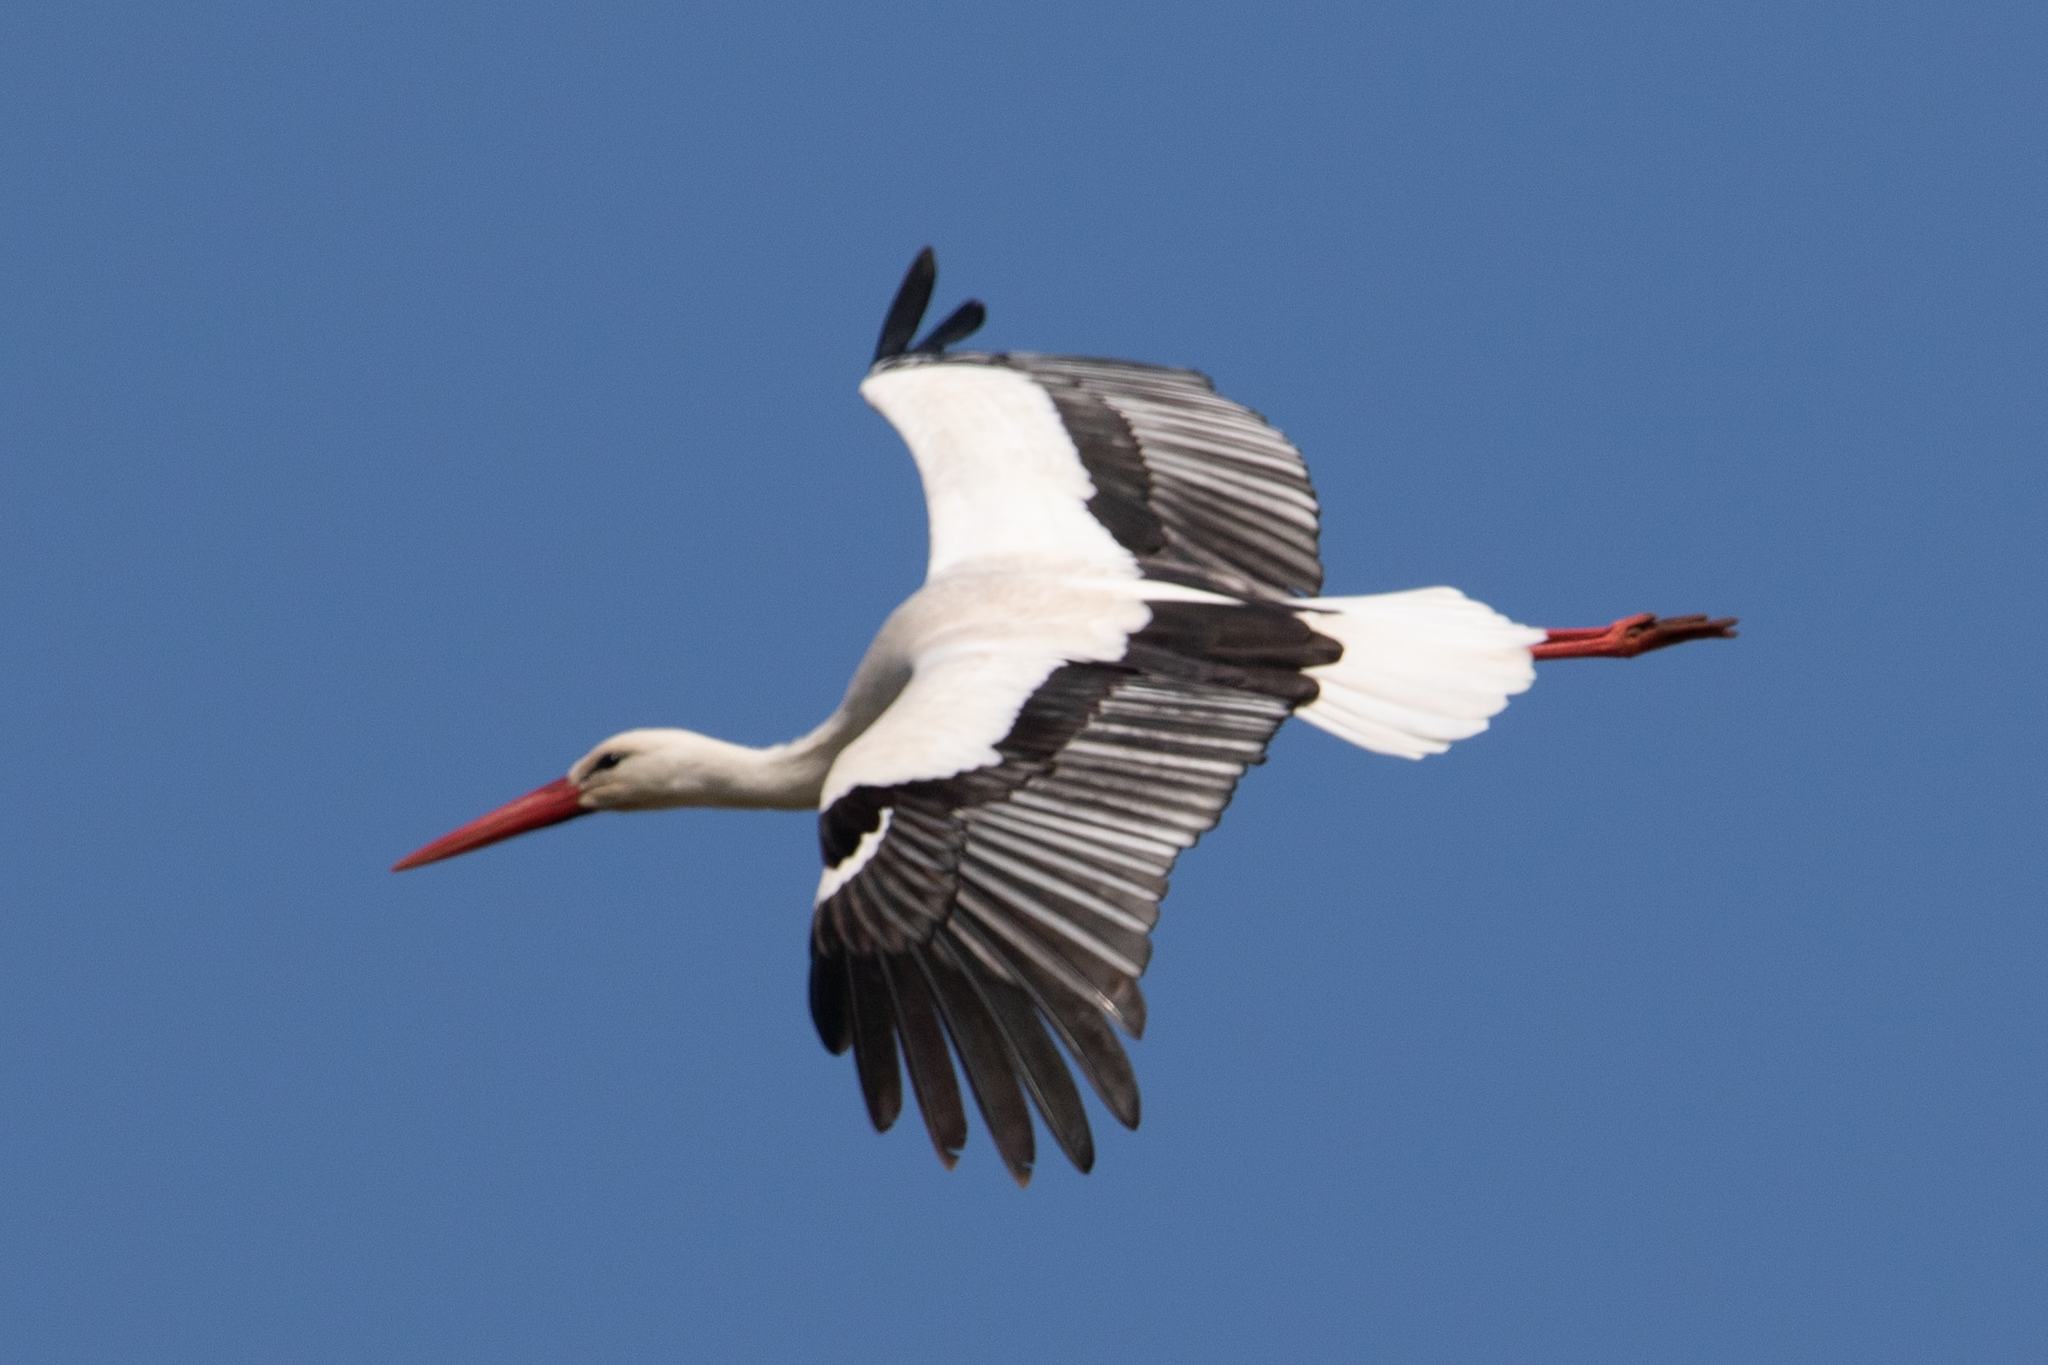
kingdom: Animalia
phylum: Chordata
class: Aves
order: Ciconiiformes
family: Ciconiidae
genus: Ciconia
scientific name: Ciconia ciconia
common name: White stork
